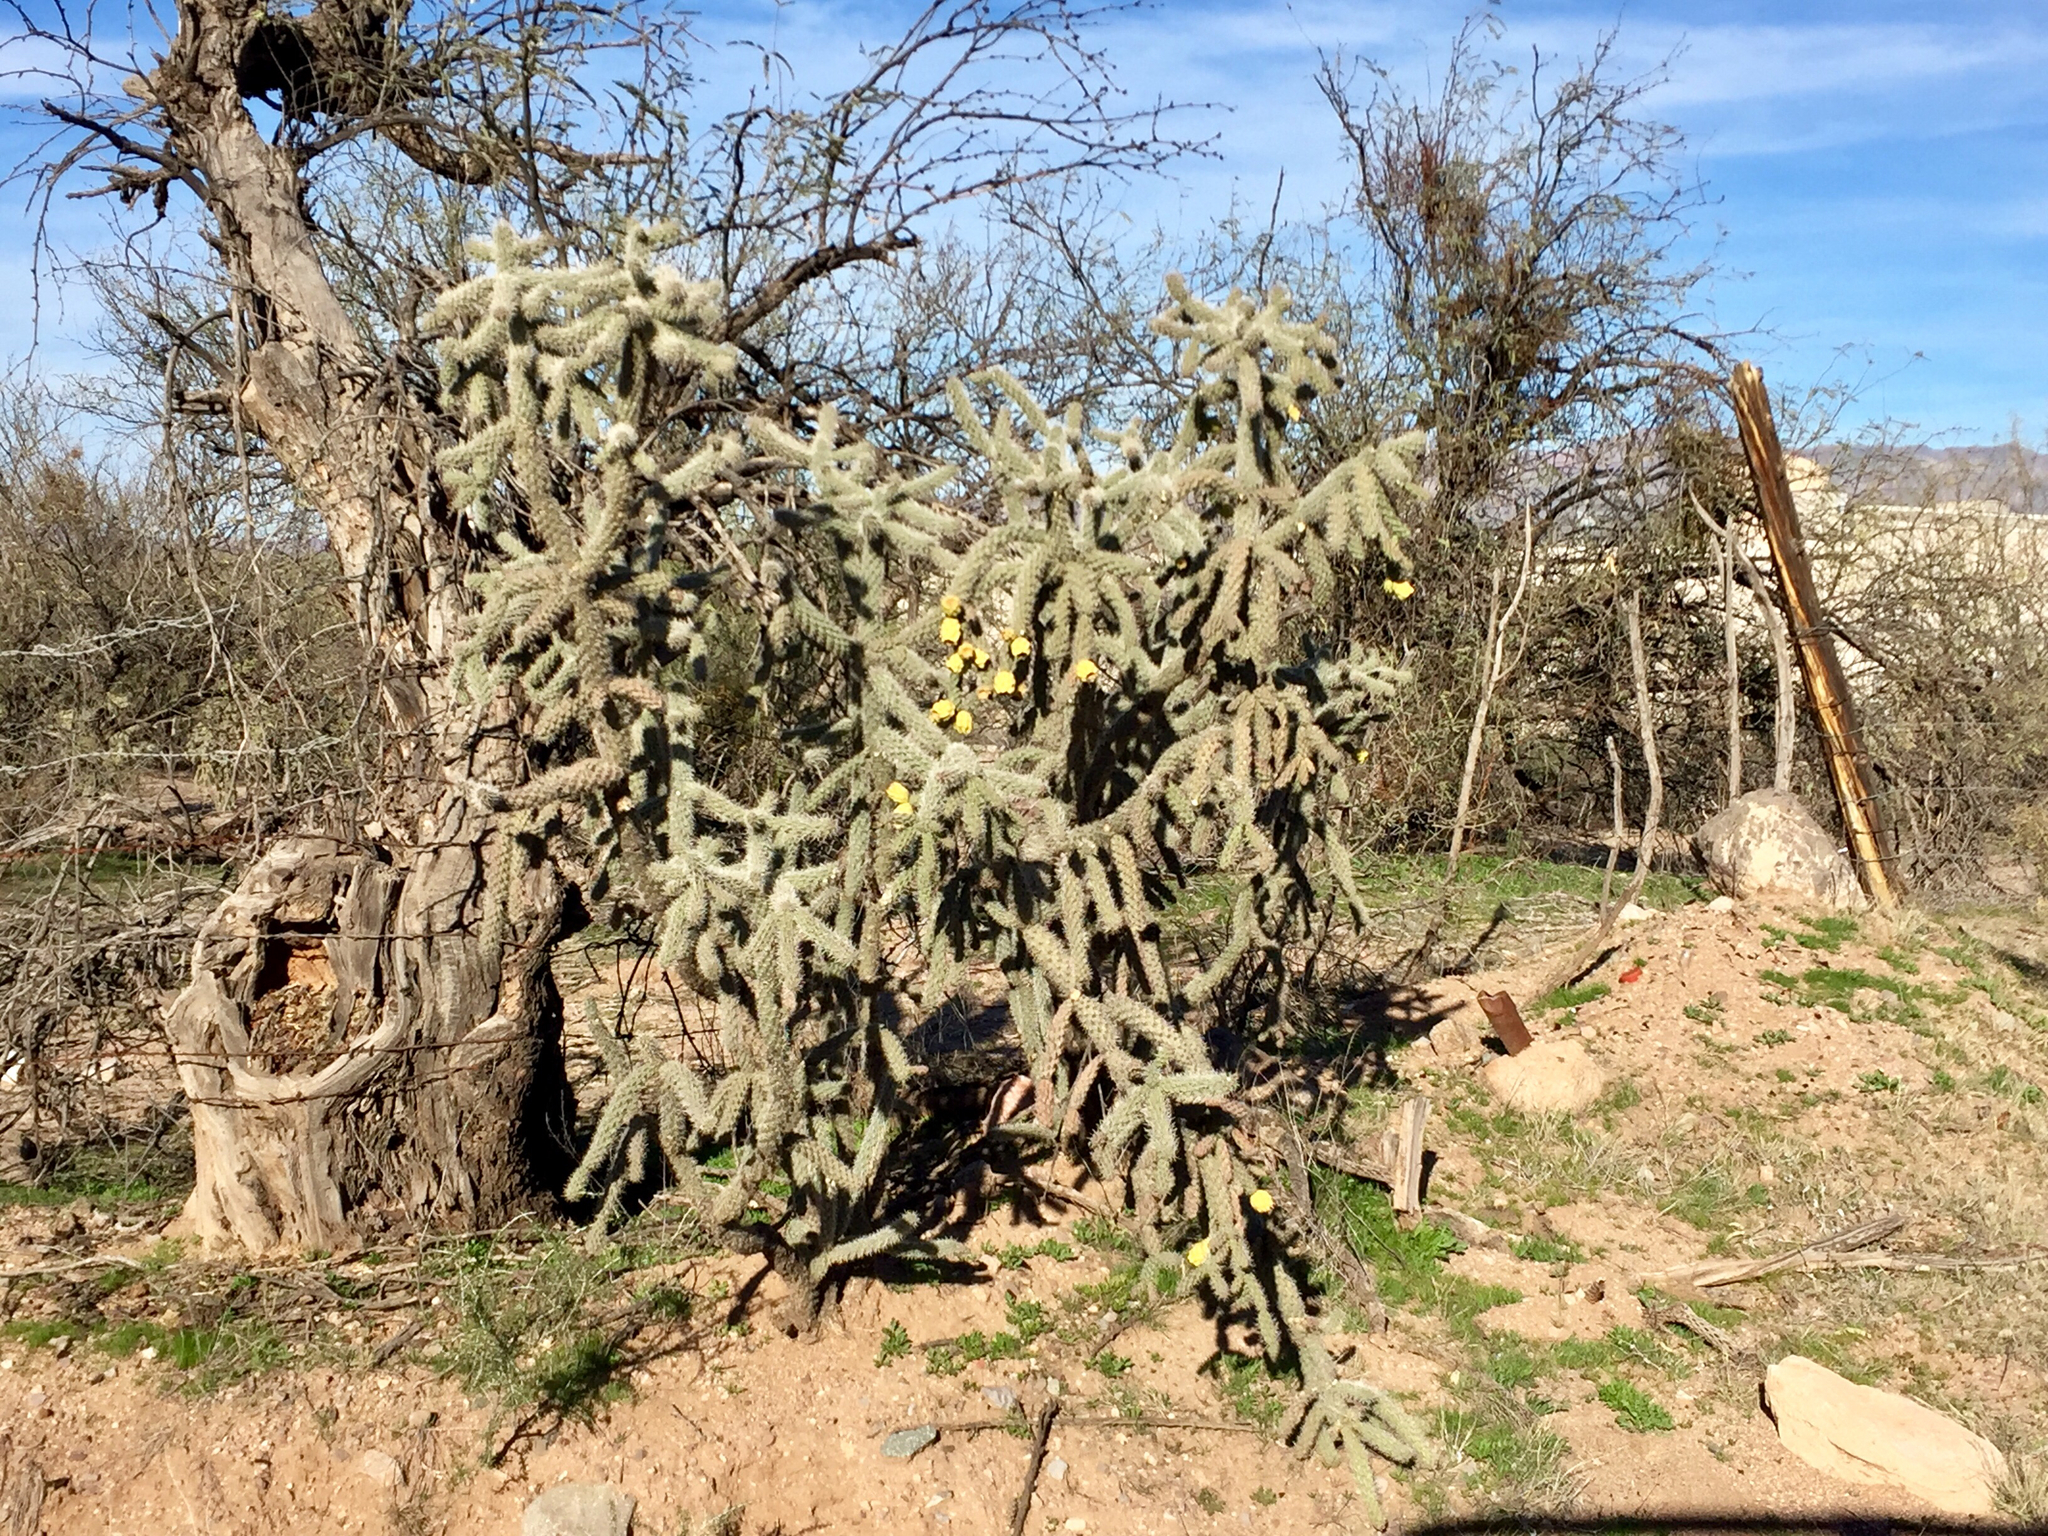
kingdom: Plantae
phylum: Tracheophyta
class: Magnoliopsida
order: Caryophyllales
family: Cactaceae
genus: Cylindropuntia
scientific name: Cylindropuntia imbricata
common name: Candelabrum cactus
